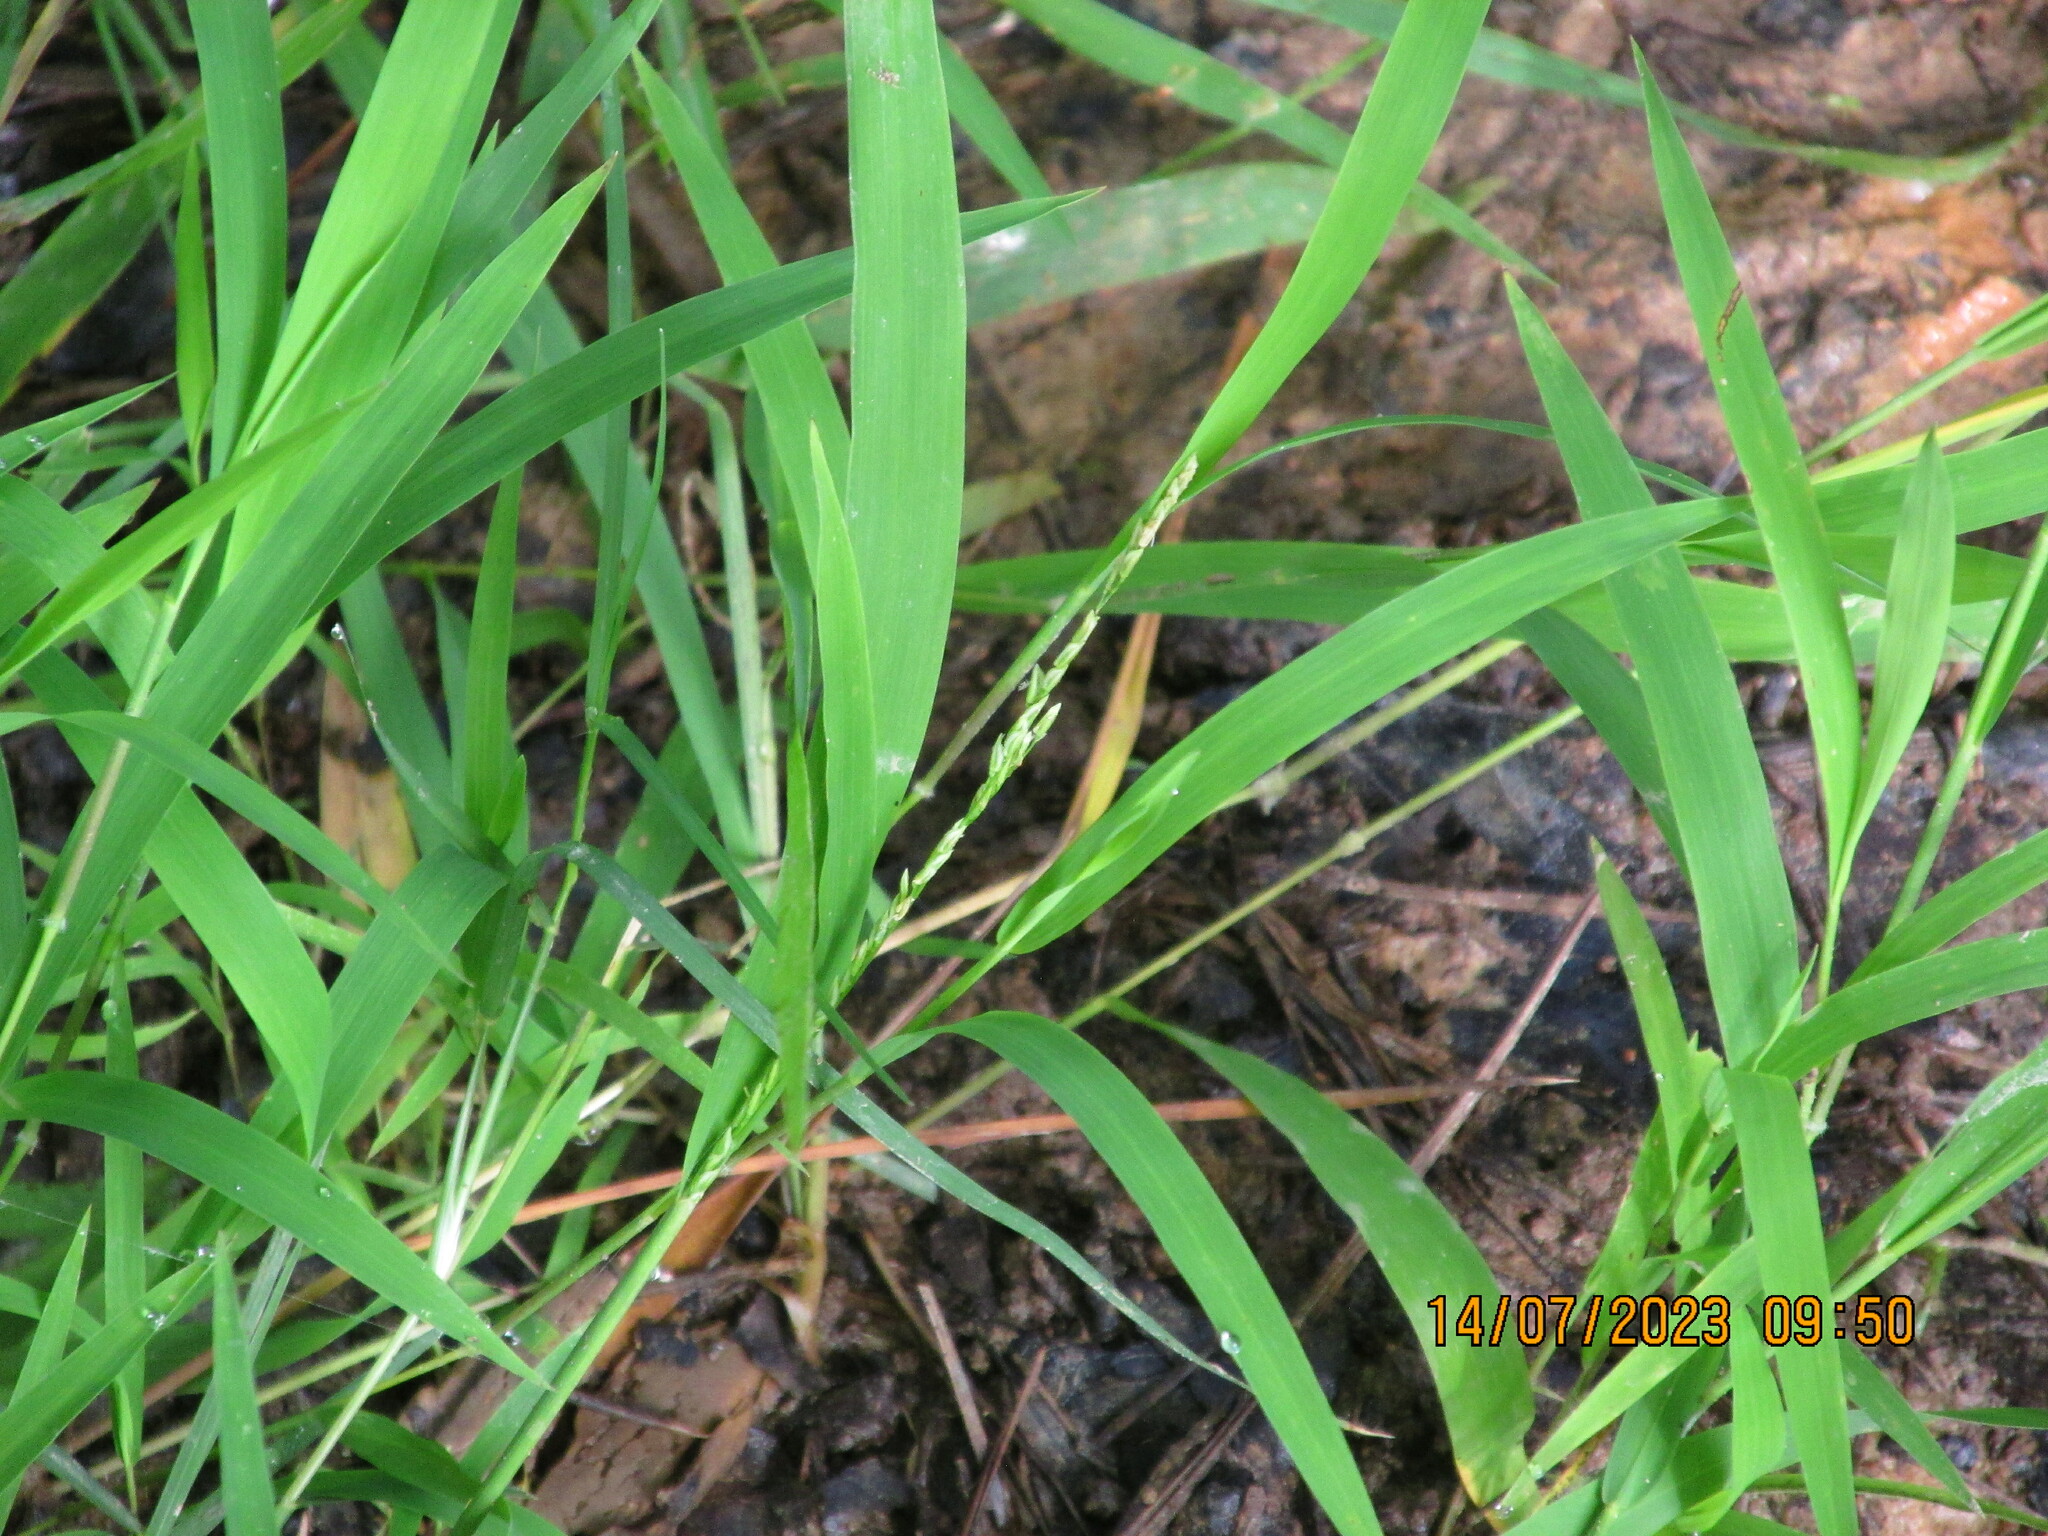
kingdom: Plantae
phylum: Tracheophyta
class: Liliopsida
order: Poales
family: Poaceae
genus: Leersia
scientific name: Leersia virginica
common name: White cutgrass
